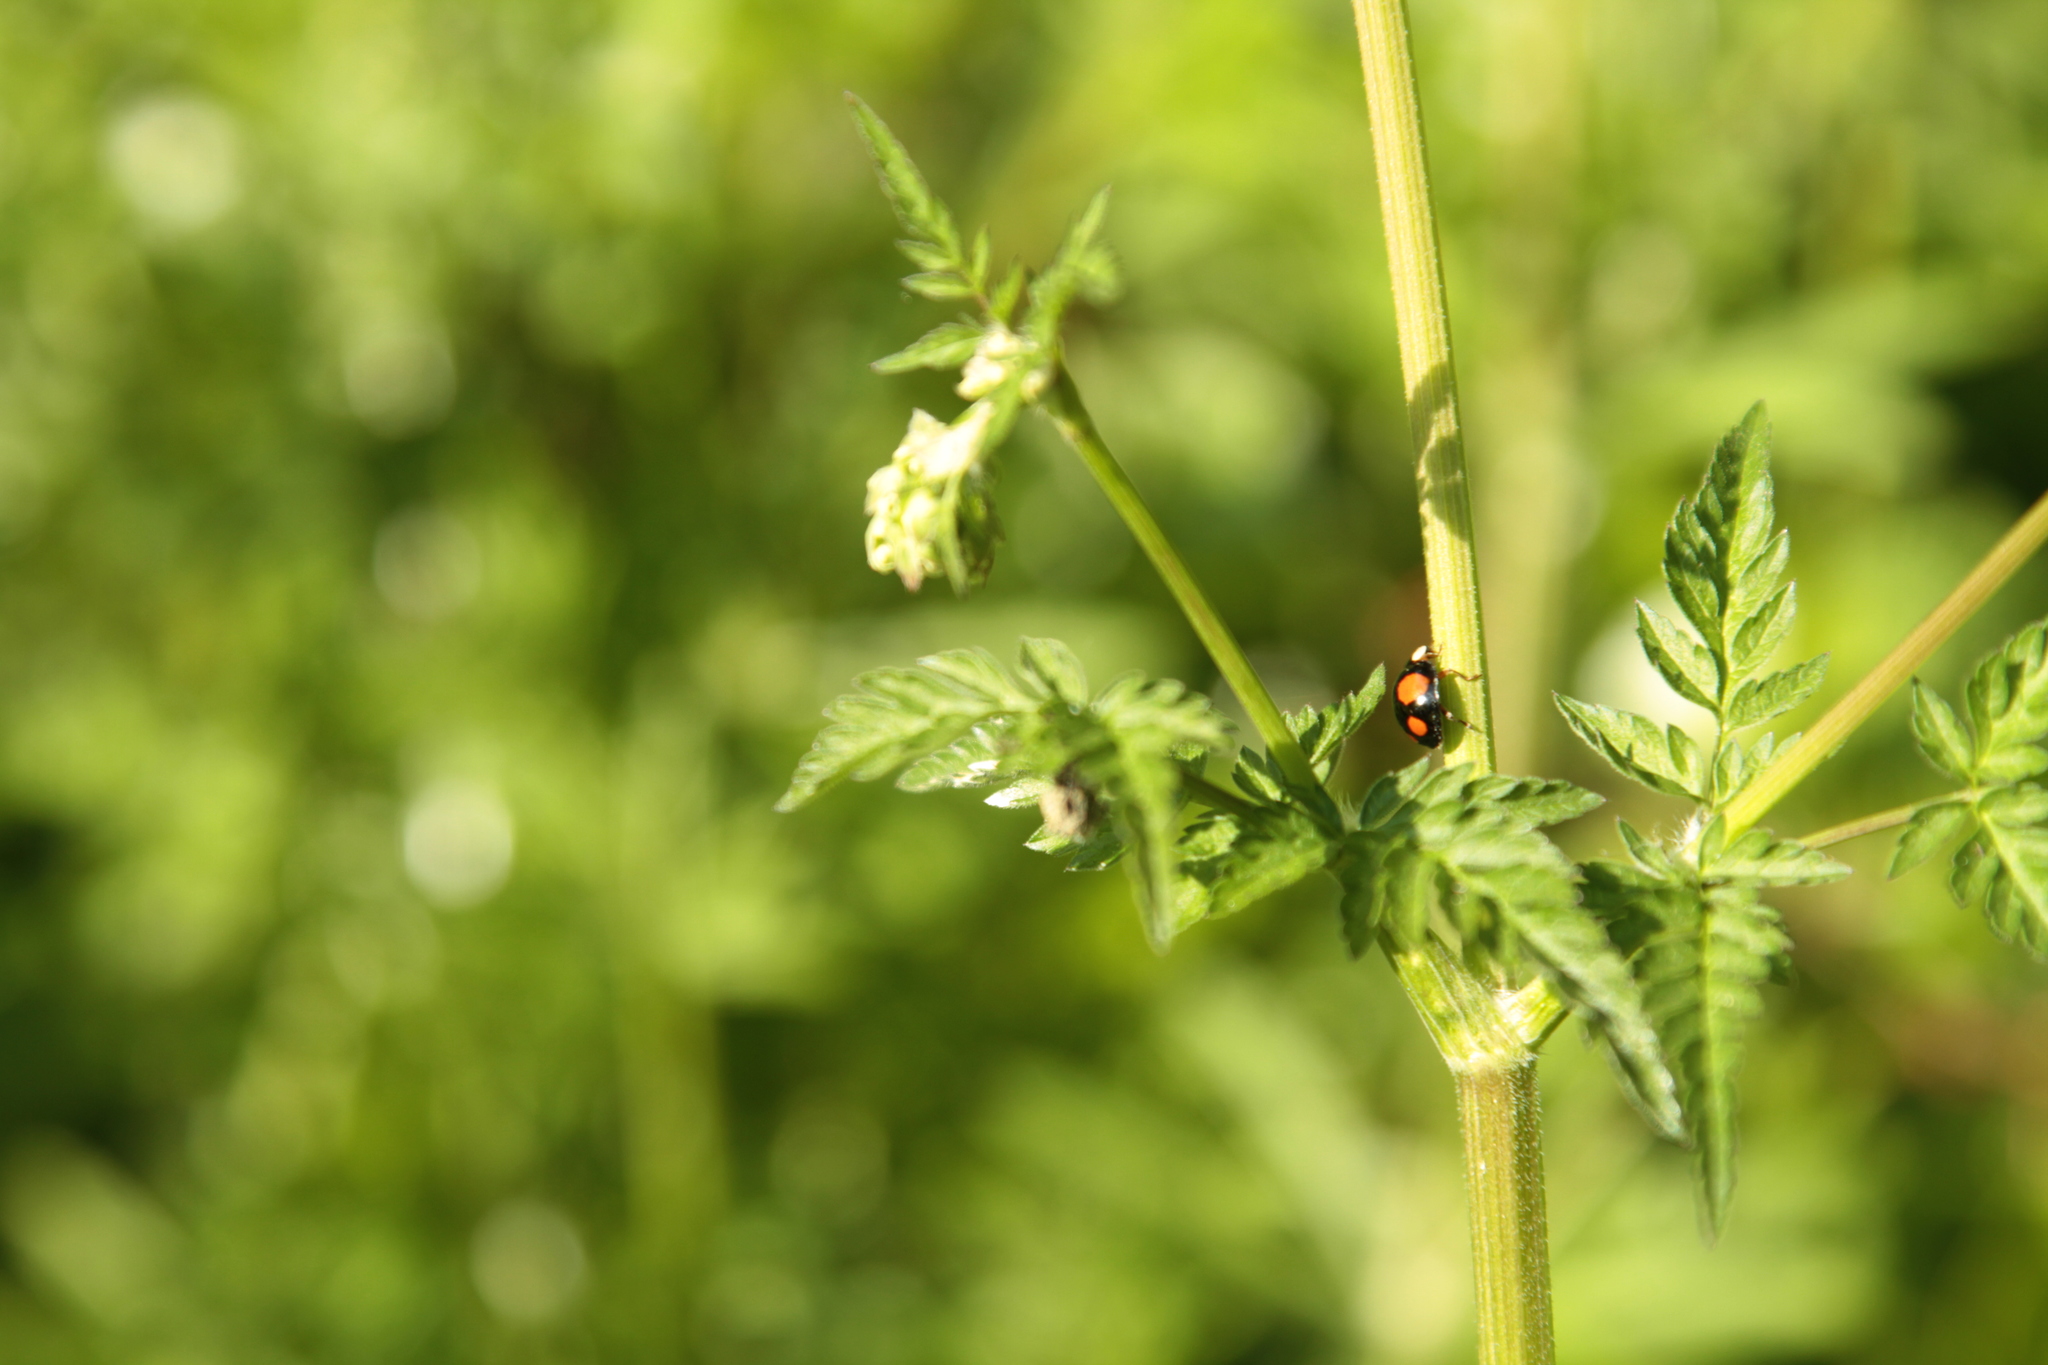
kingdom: Animalia
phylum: Arthropoda
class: Insecta
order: Coleoptera
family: Coccinellidae
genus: Harmonia
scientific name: Harmonia axyridis
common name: Harlequin ladybird
